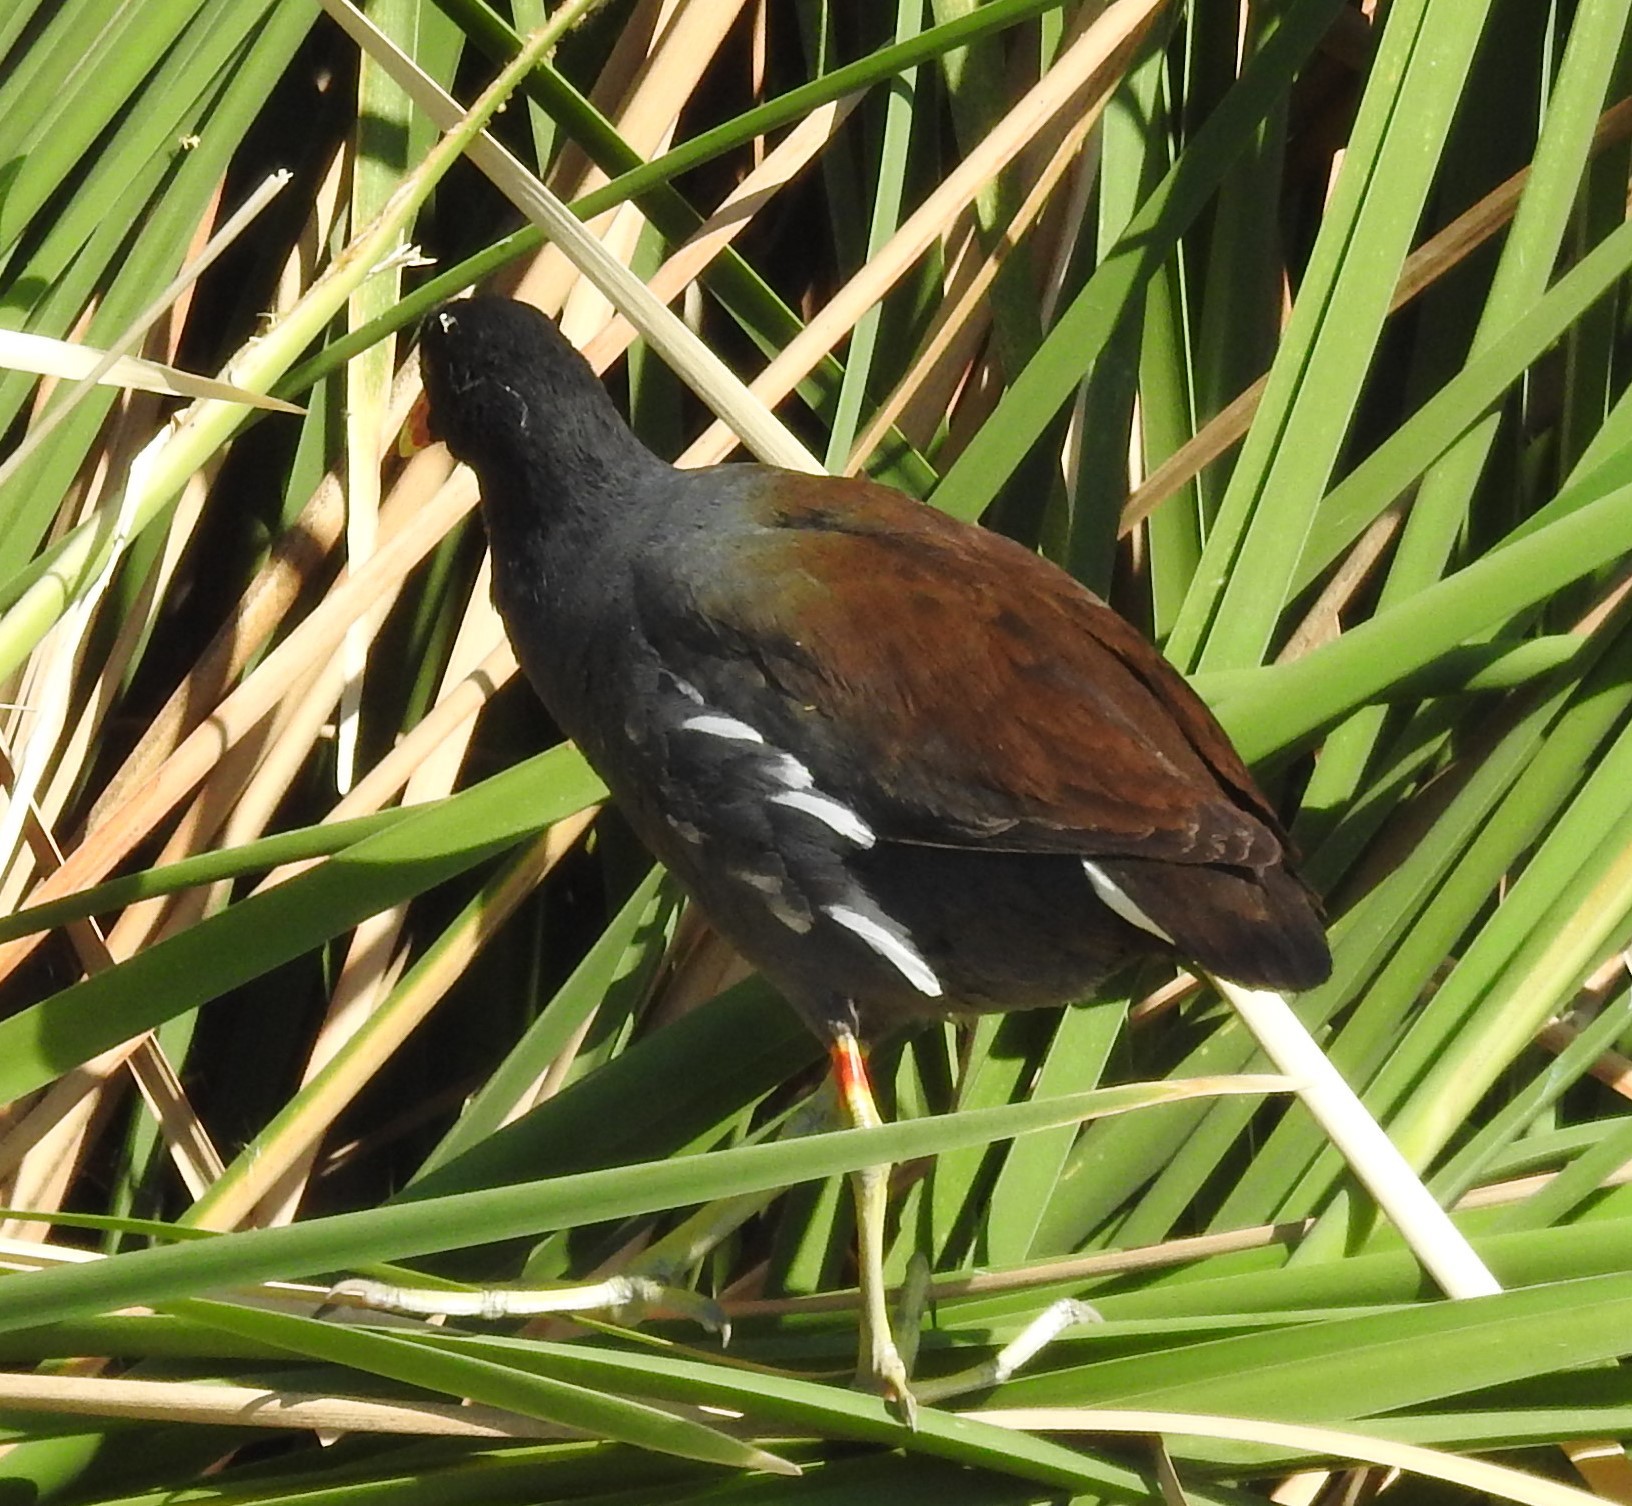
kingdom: Animalia
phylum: Chordata
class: Aves
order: Gruiformes
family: Rallidae
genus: Gallinula
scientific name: Gallinula chloropus
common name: Common moorhen
